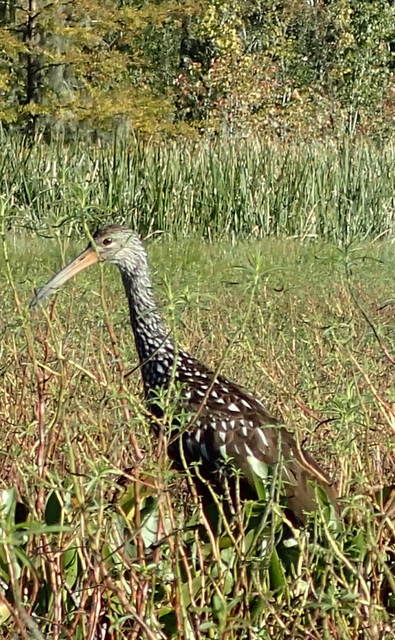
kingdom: Animalia
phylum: Chordata
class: Aves
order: Gruiformes
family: Aramidae
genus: Aramus
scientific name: Aramus guarauna
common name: Limpkin
